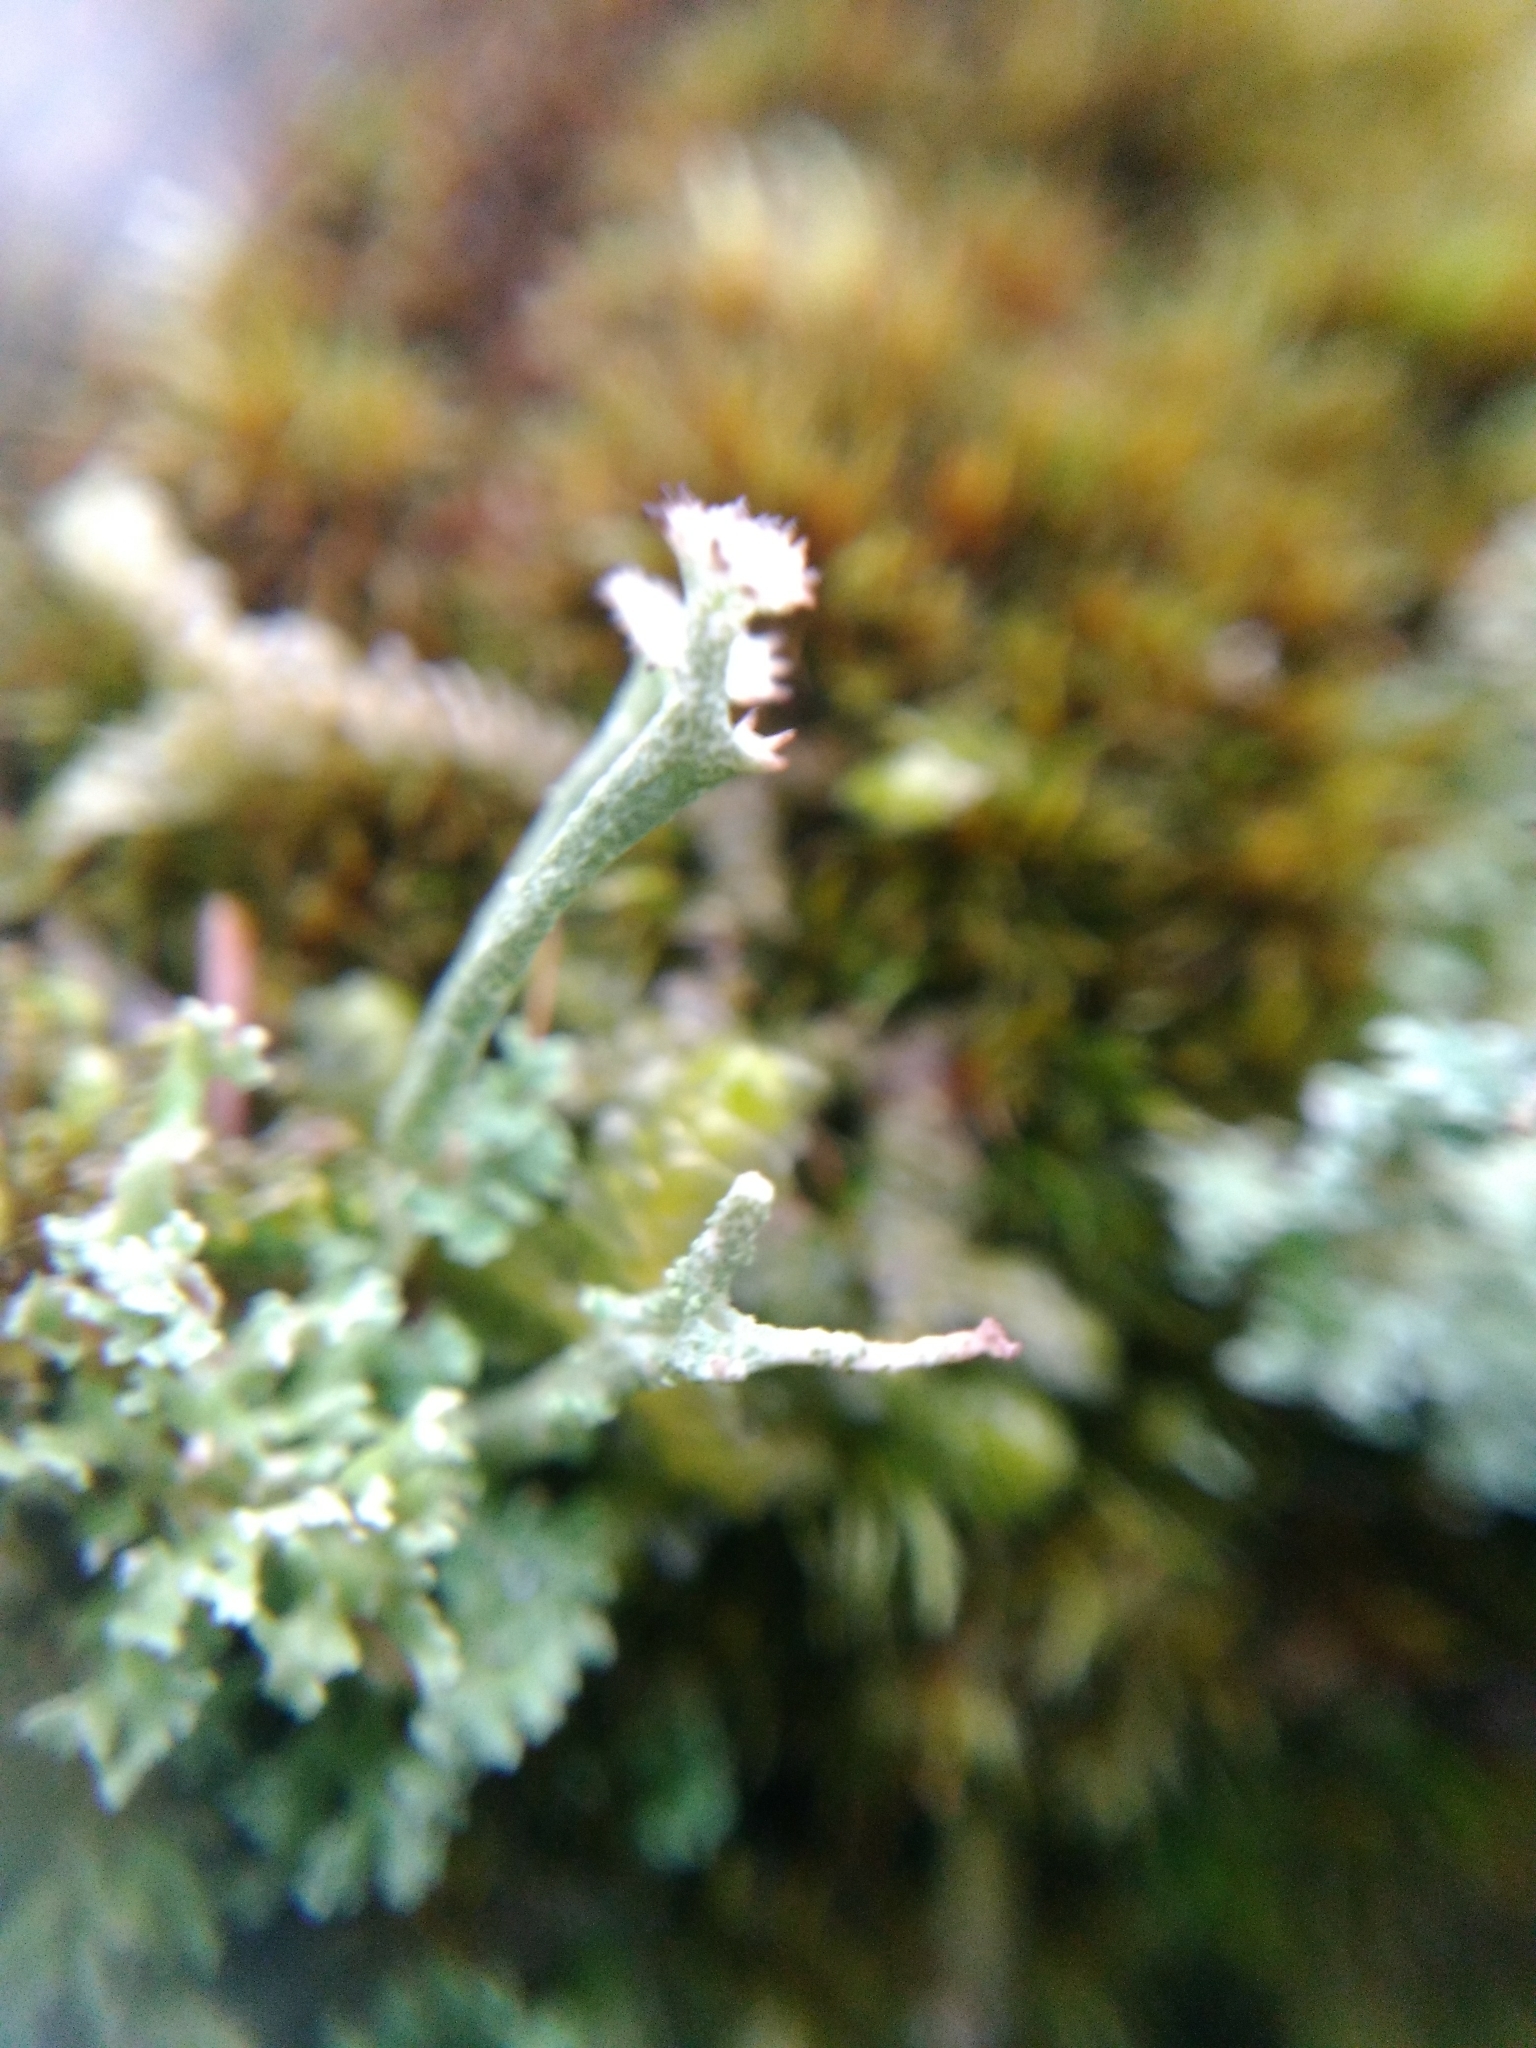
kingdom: Fungi
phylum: Ascomycota
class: Lecanoromycetes
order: Lecanorales
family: Cladoniaceae
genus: Cladonia
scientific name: Cladonia crispata
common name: Organ-pipe lichen
